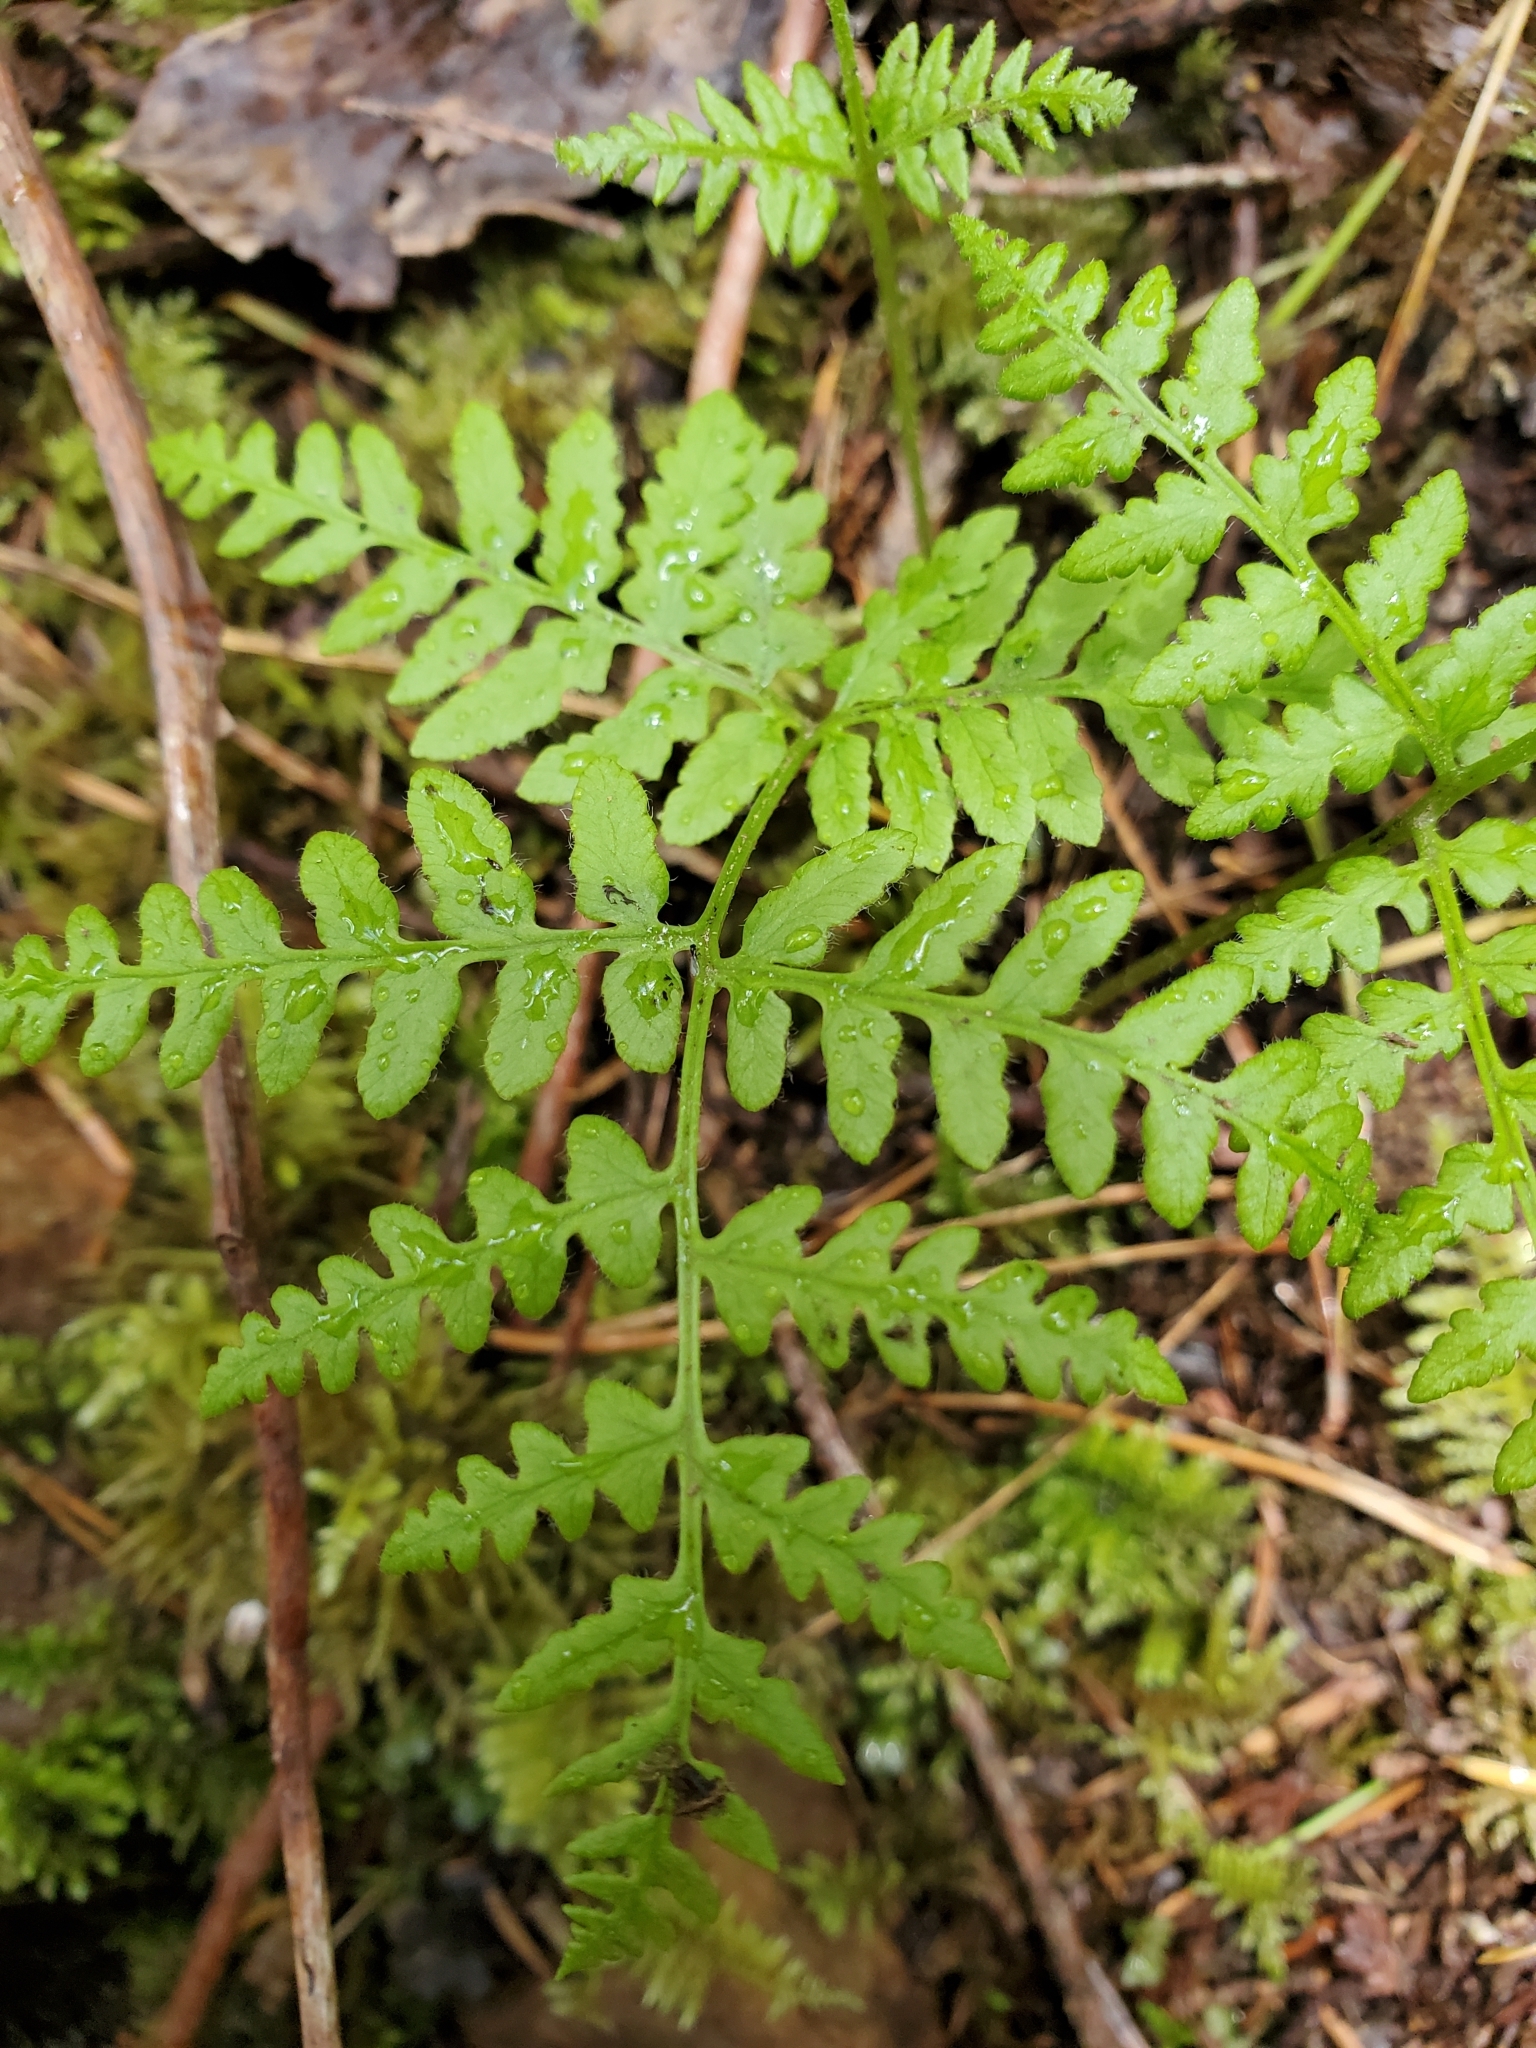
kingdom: Plantae
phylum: Tracheophyta
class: Polypodiopsida
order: Polypodiales
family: Dennstaedtiaceae
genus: Pteridium
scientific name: Pteridium aquilinum
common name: Bracken
